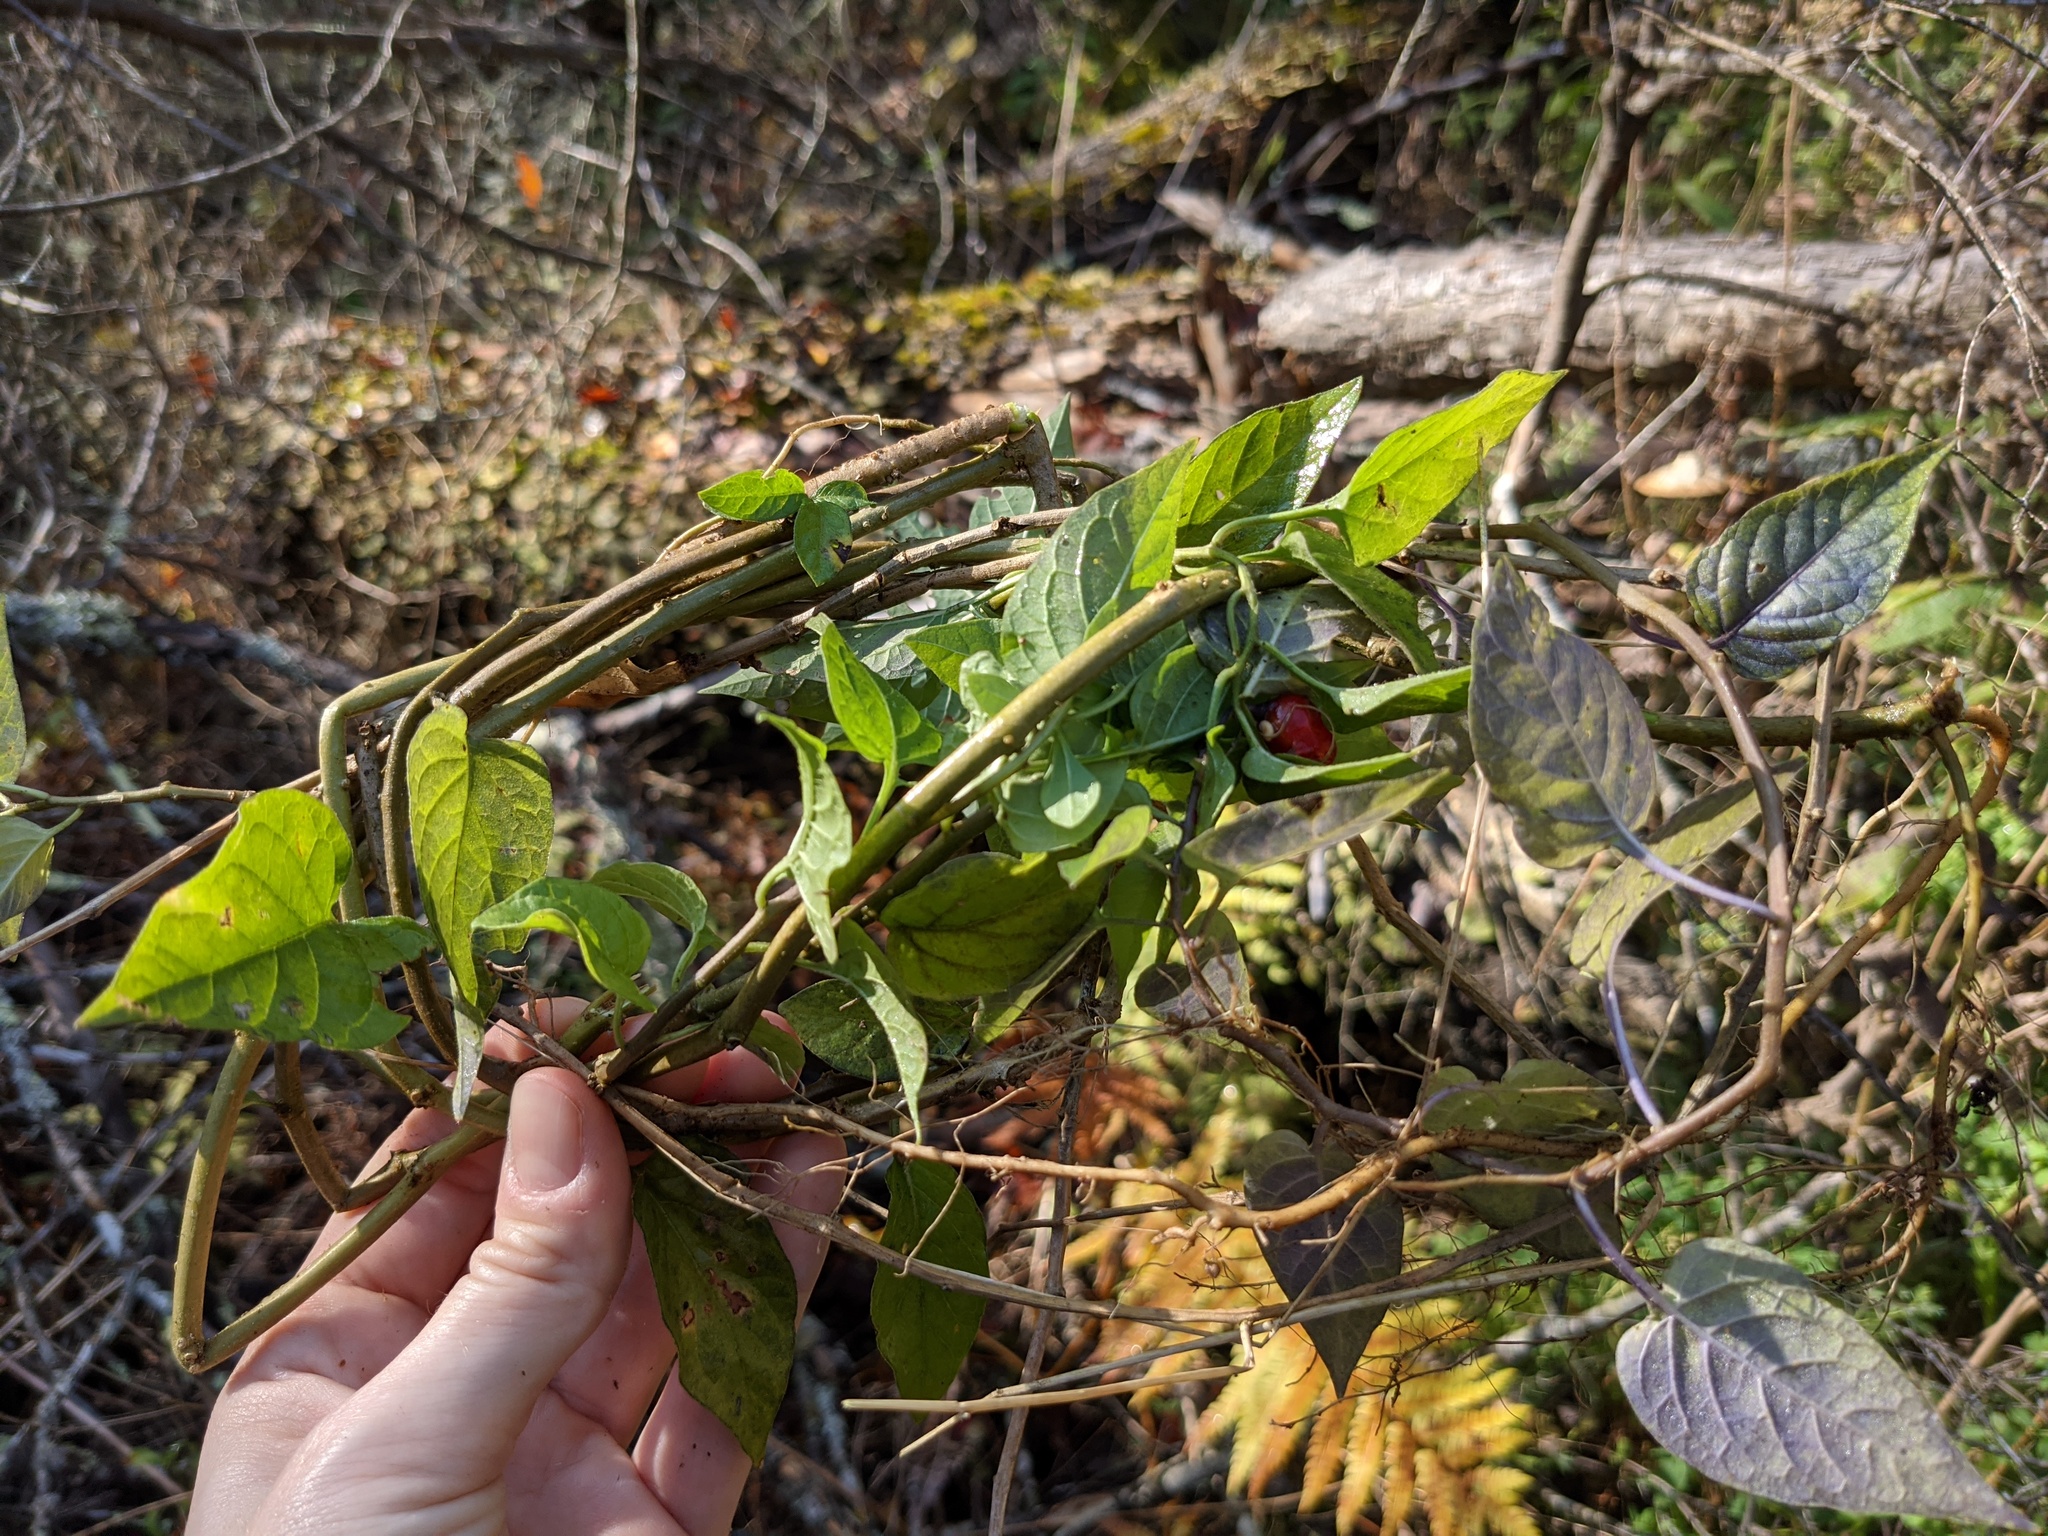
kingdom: Plantae
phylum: Tracheophyta
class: Magnoliopsida
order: Solanales
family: Solanaceae
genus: Solanum
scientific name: Solanum dulcamara
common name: Climbing nightshade
